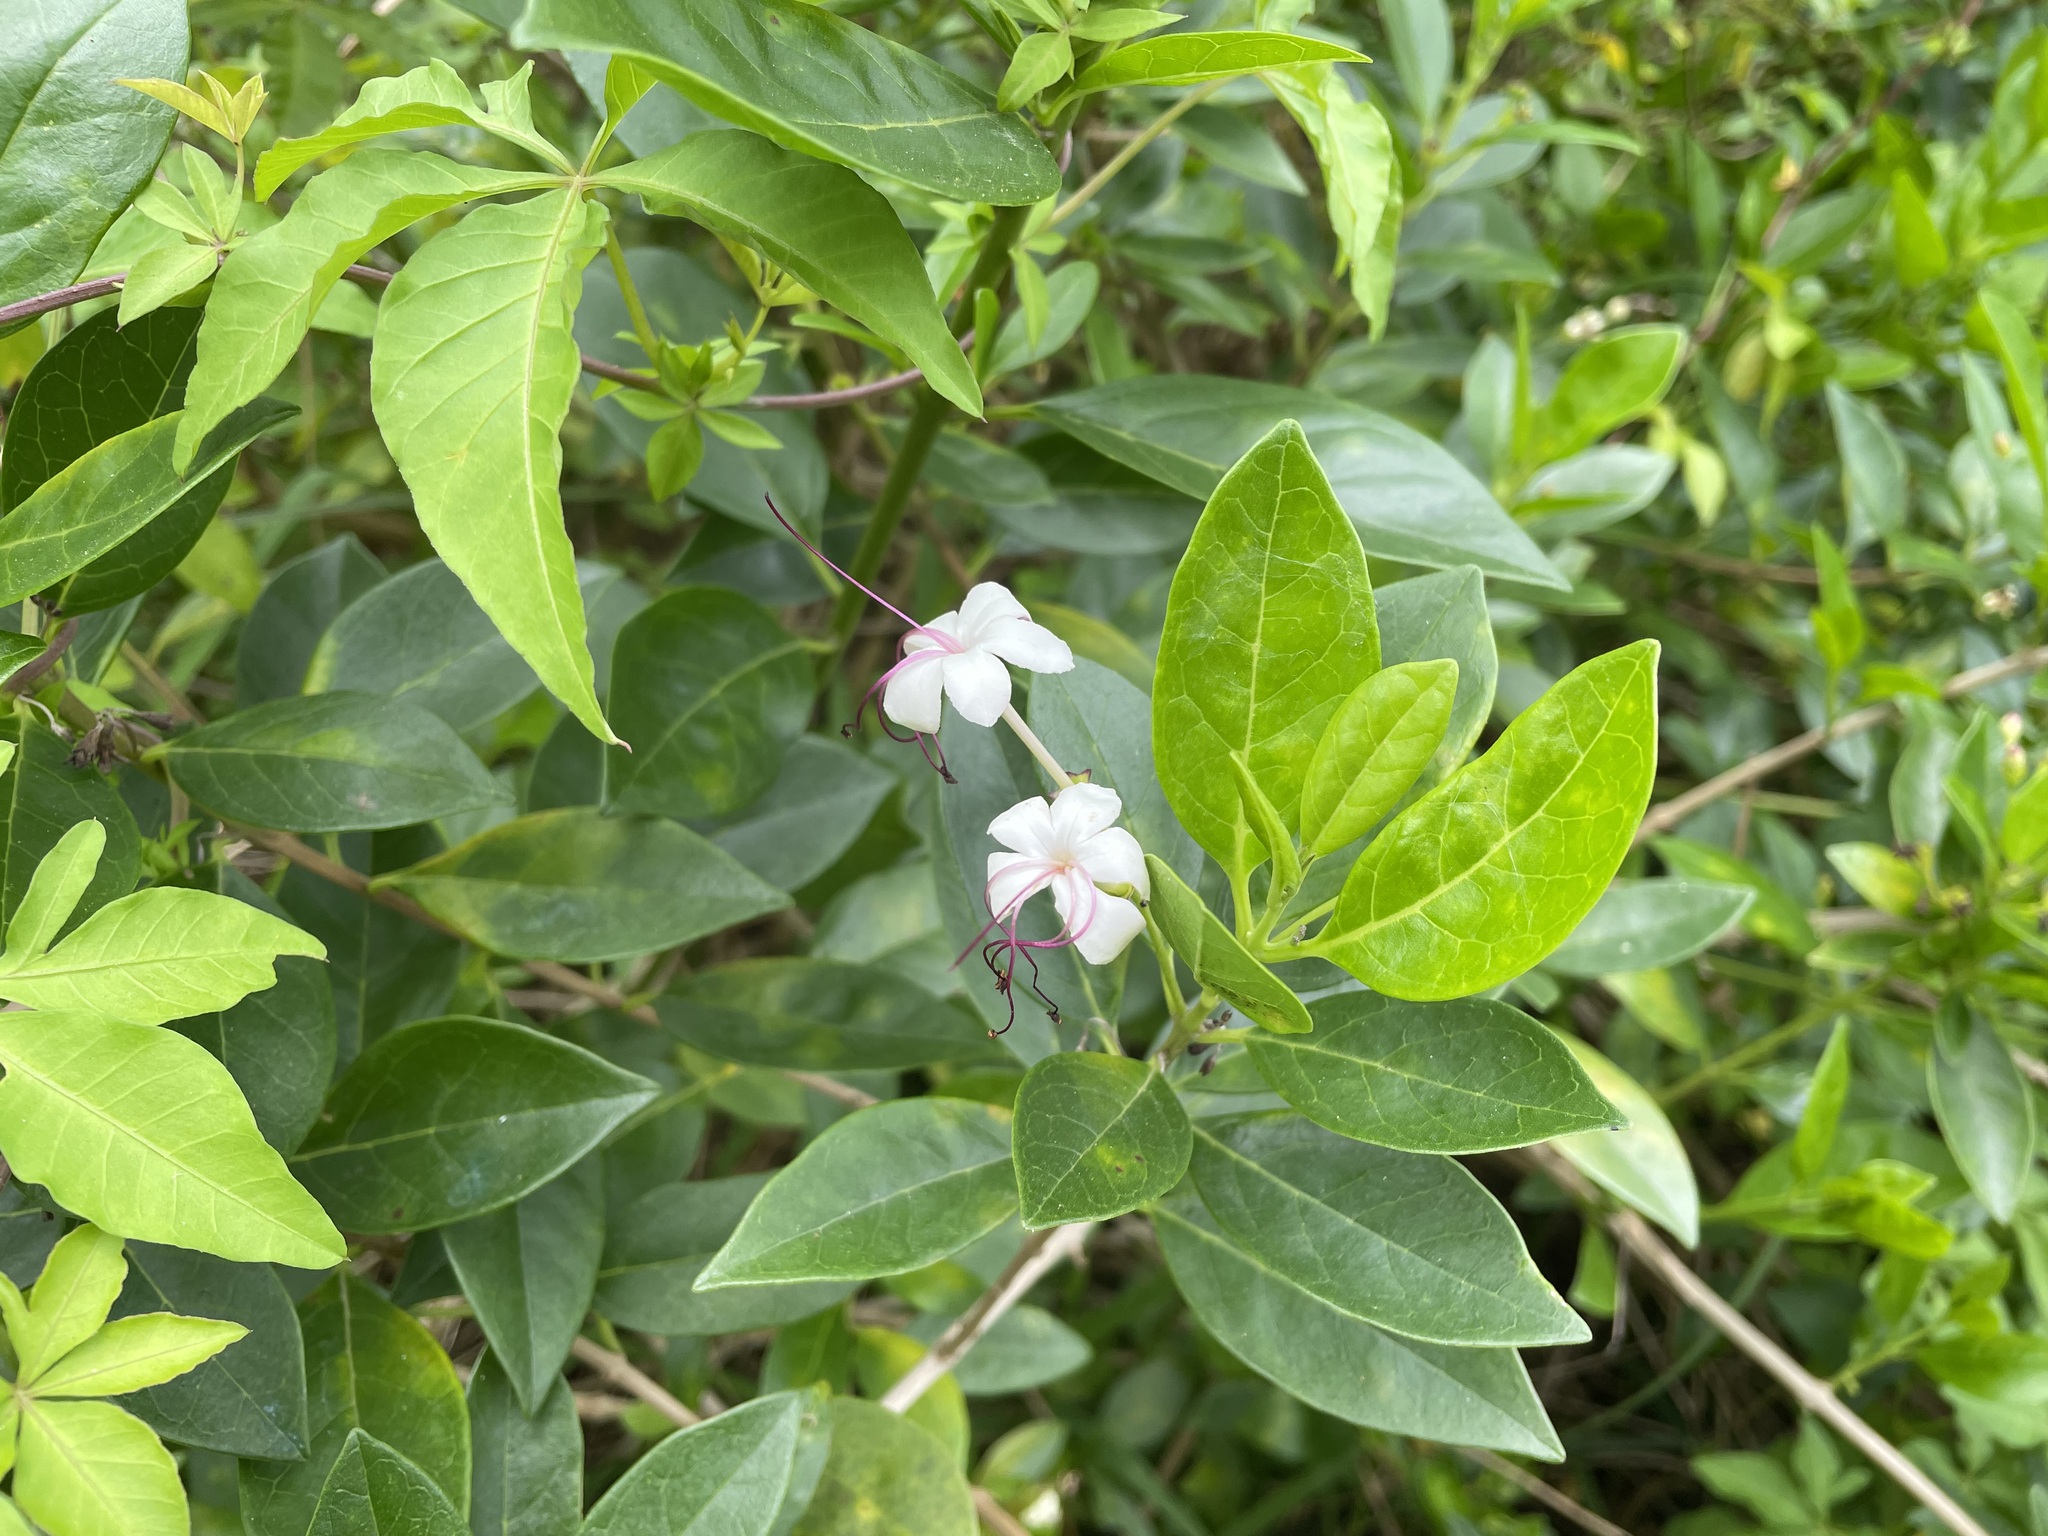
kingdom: Plantae
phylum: Tracheophyta
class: Magnoliopsida
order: Lamiales
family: Lamiaceae
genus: Volkameria
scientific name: Volkameria inermis
